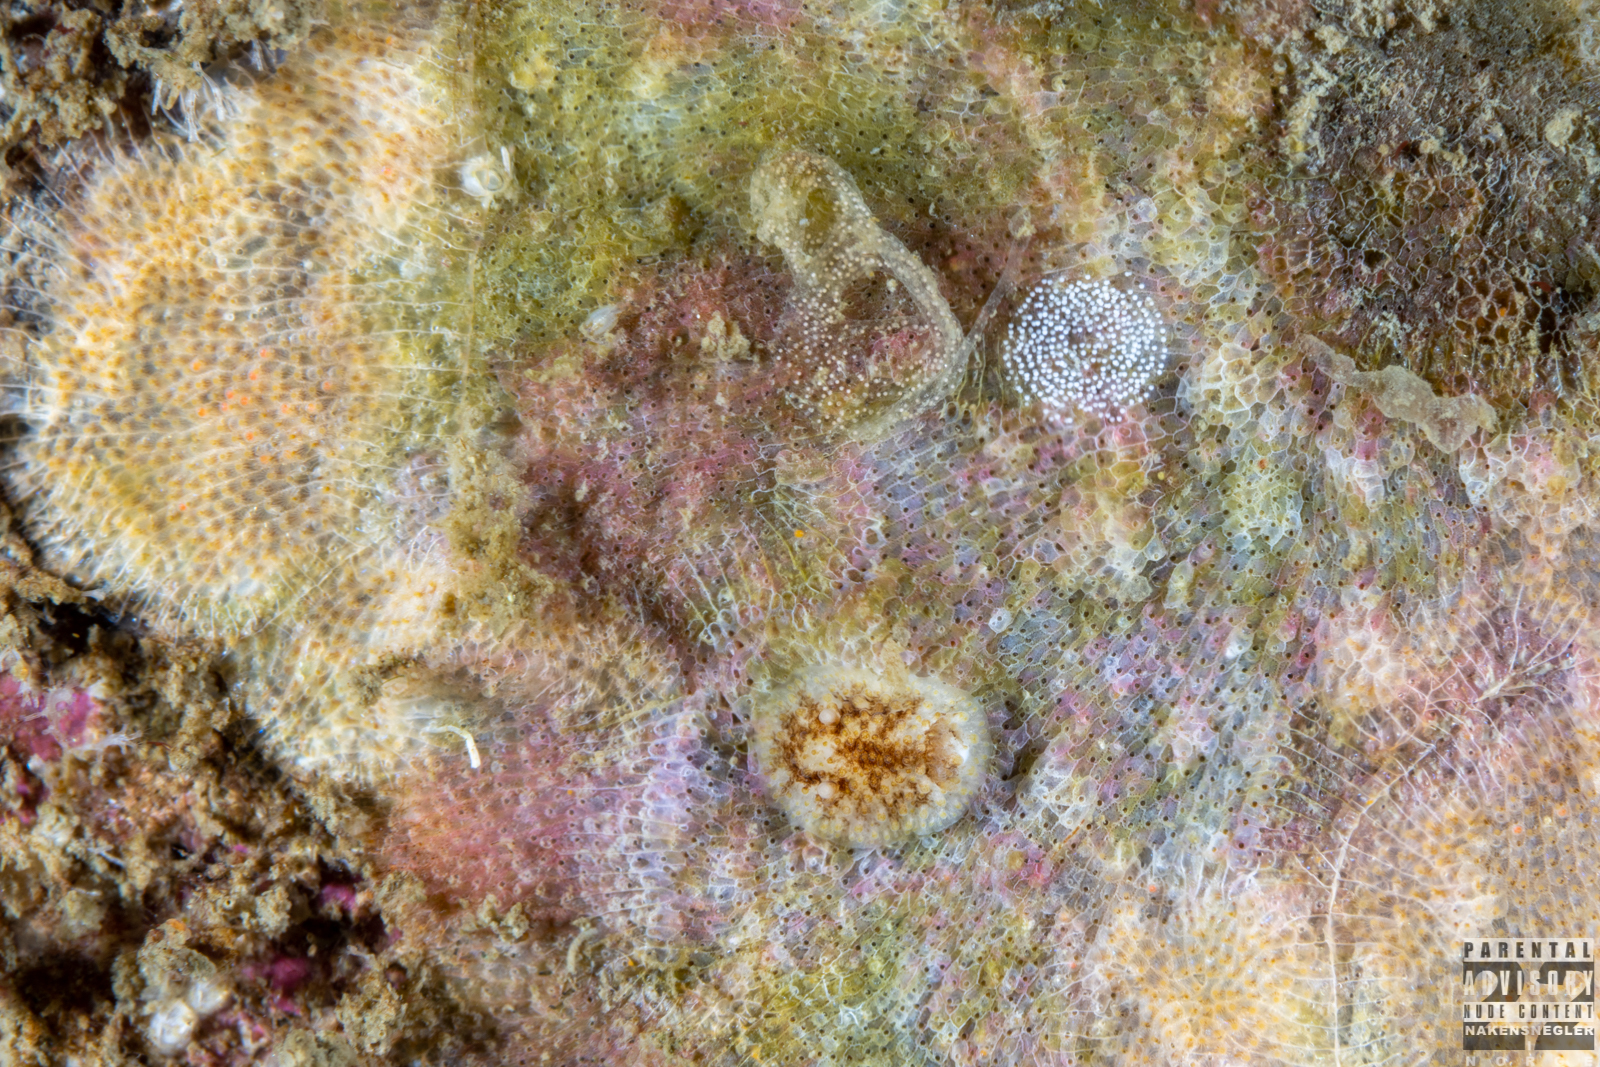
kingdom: Animalia
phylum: Mollusca
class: Gastropoda
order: Nudibranchia
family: Onchidorididae
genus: Onchidoris
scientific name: Onchidoris bilamellata
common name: Barnacle-eating onchidoris
